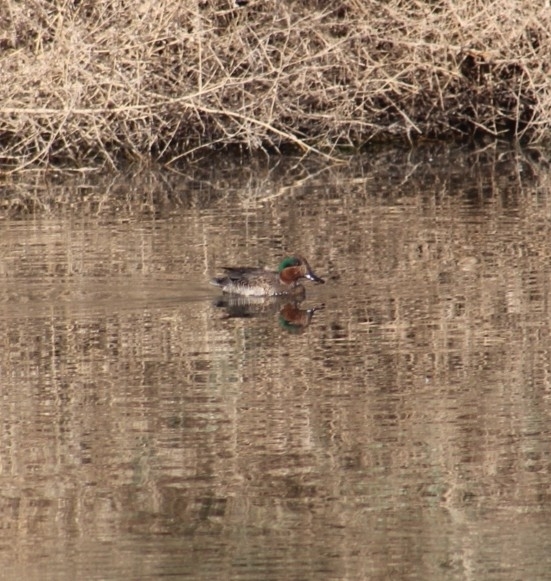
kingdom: Animalia
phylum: Chordata
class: Aves
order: Anseriformes
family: Anatidae
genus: Anas
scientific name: Anas crecca
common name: Eurasian teal
